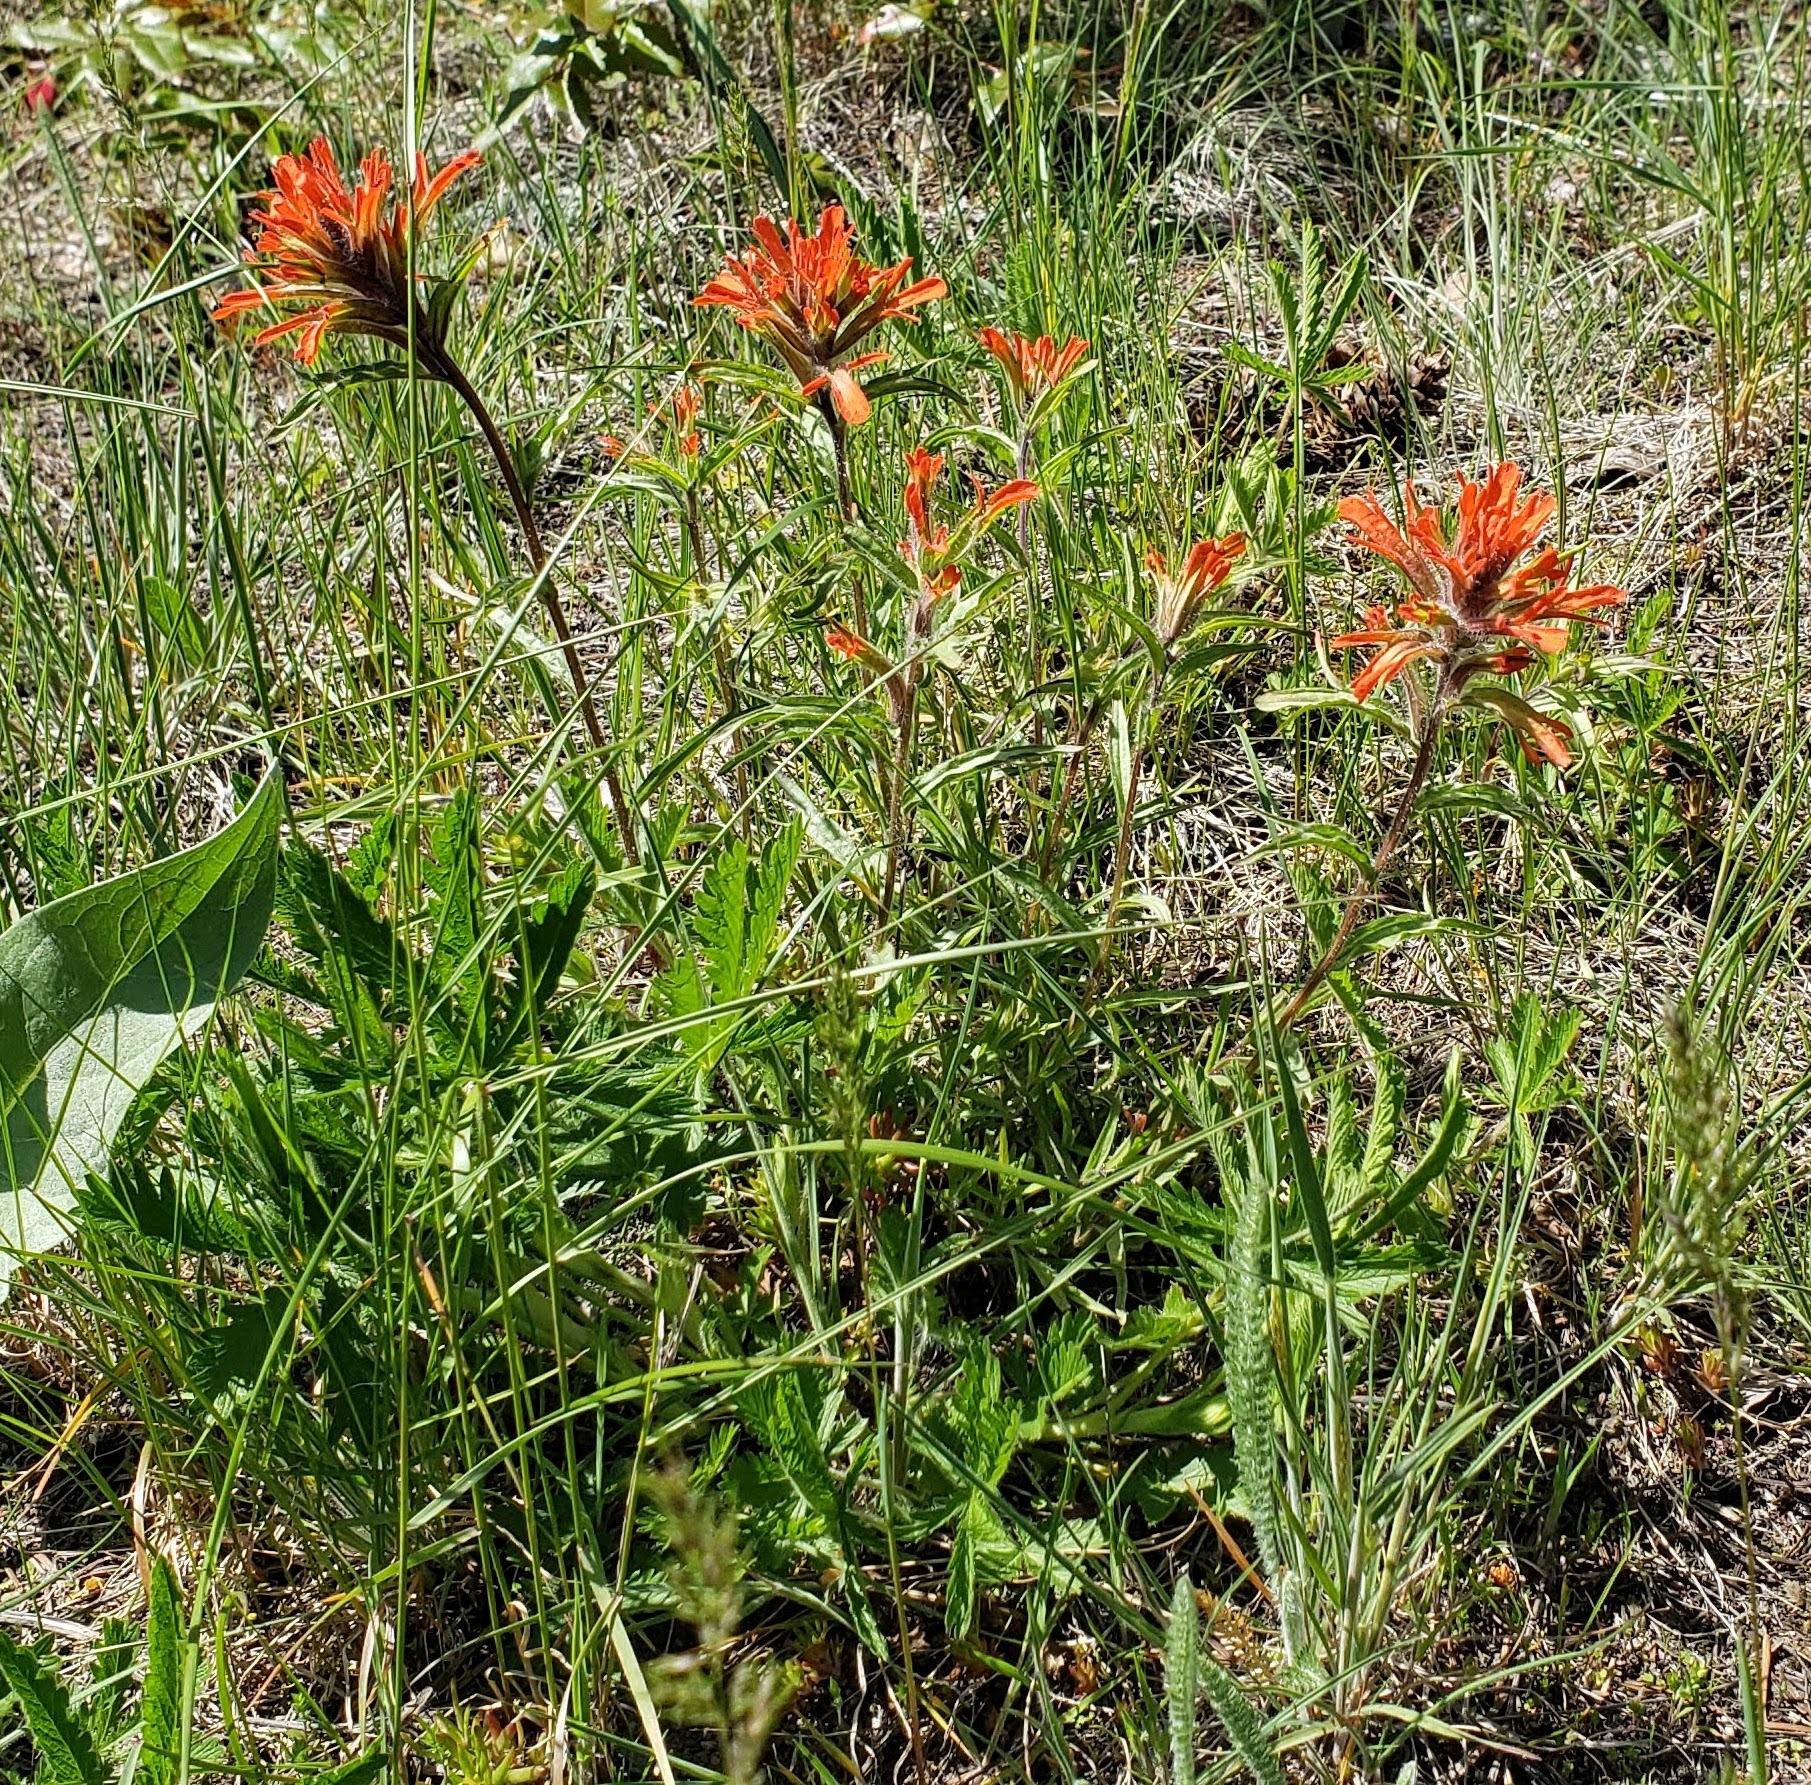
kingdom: Plantae
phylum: Tracheophyta
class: Magnoliopsida
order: Lamiales
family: Orobanchaceae
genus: Castilleja
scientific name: Castilleja hispida
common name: Bristly paintbrush
